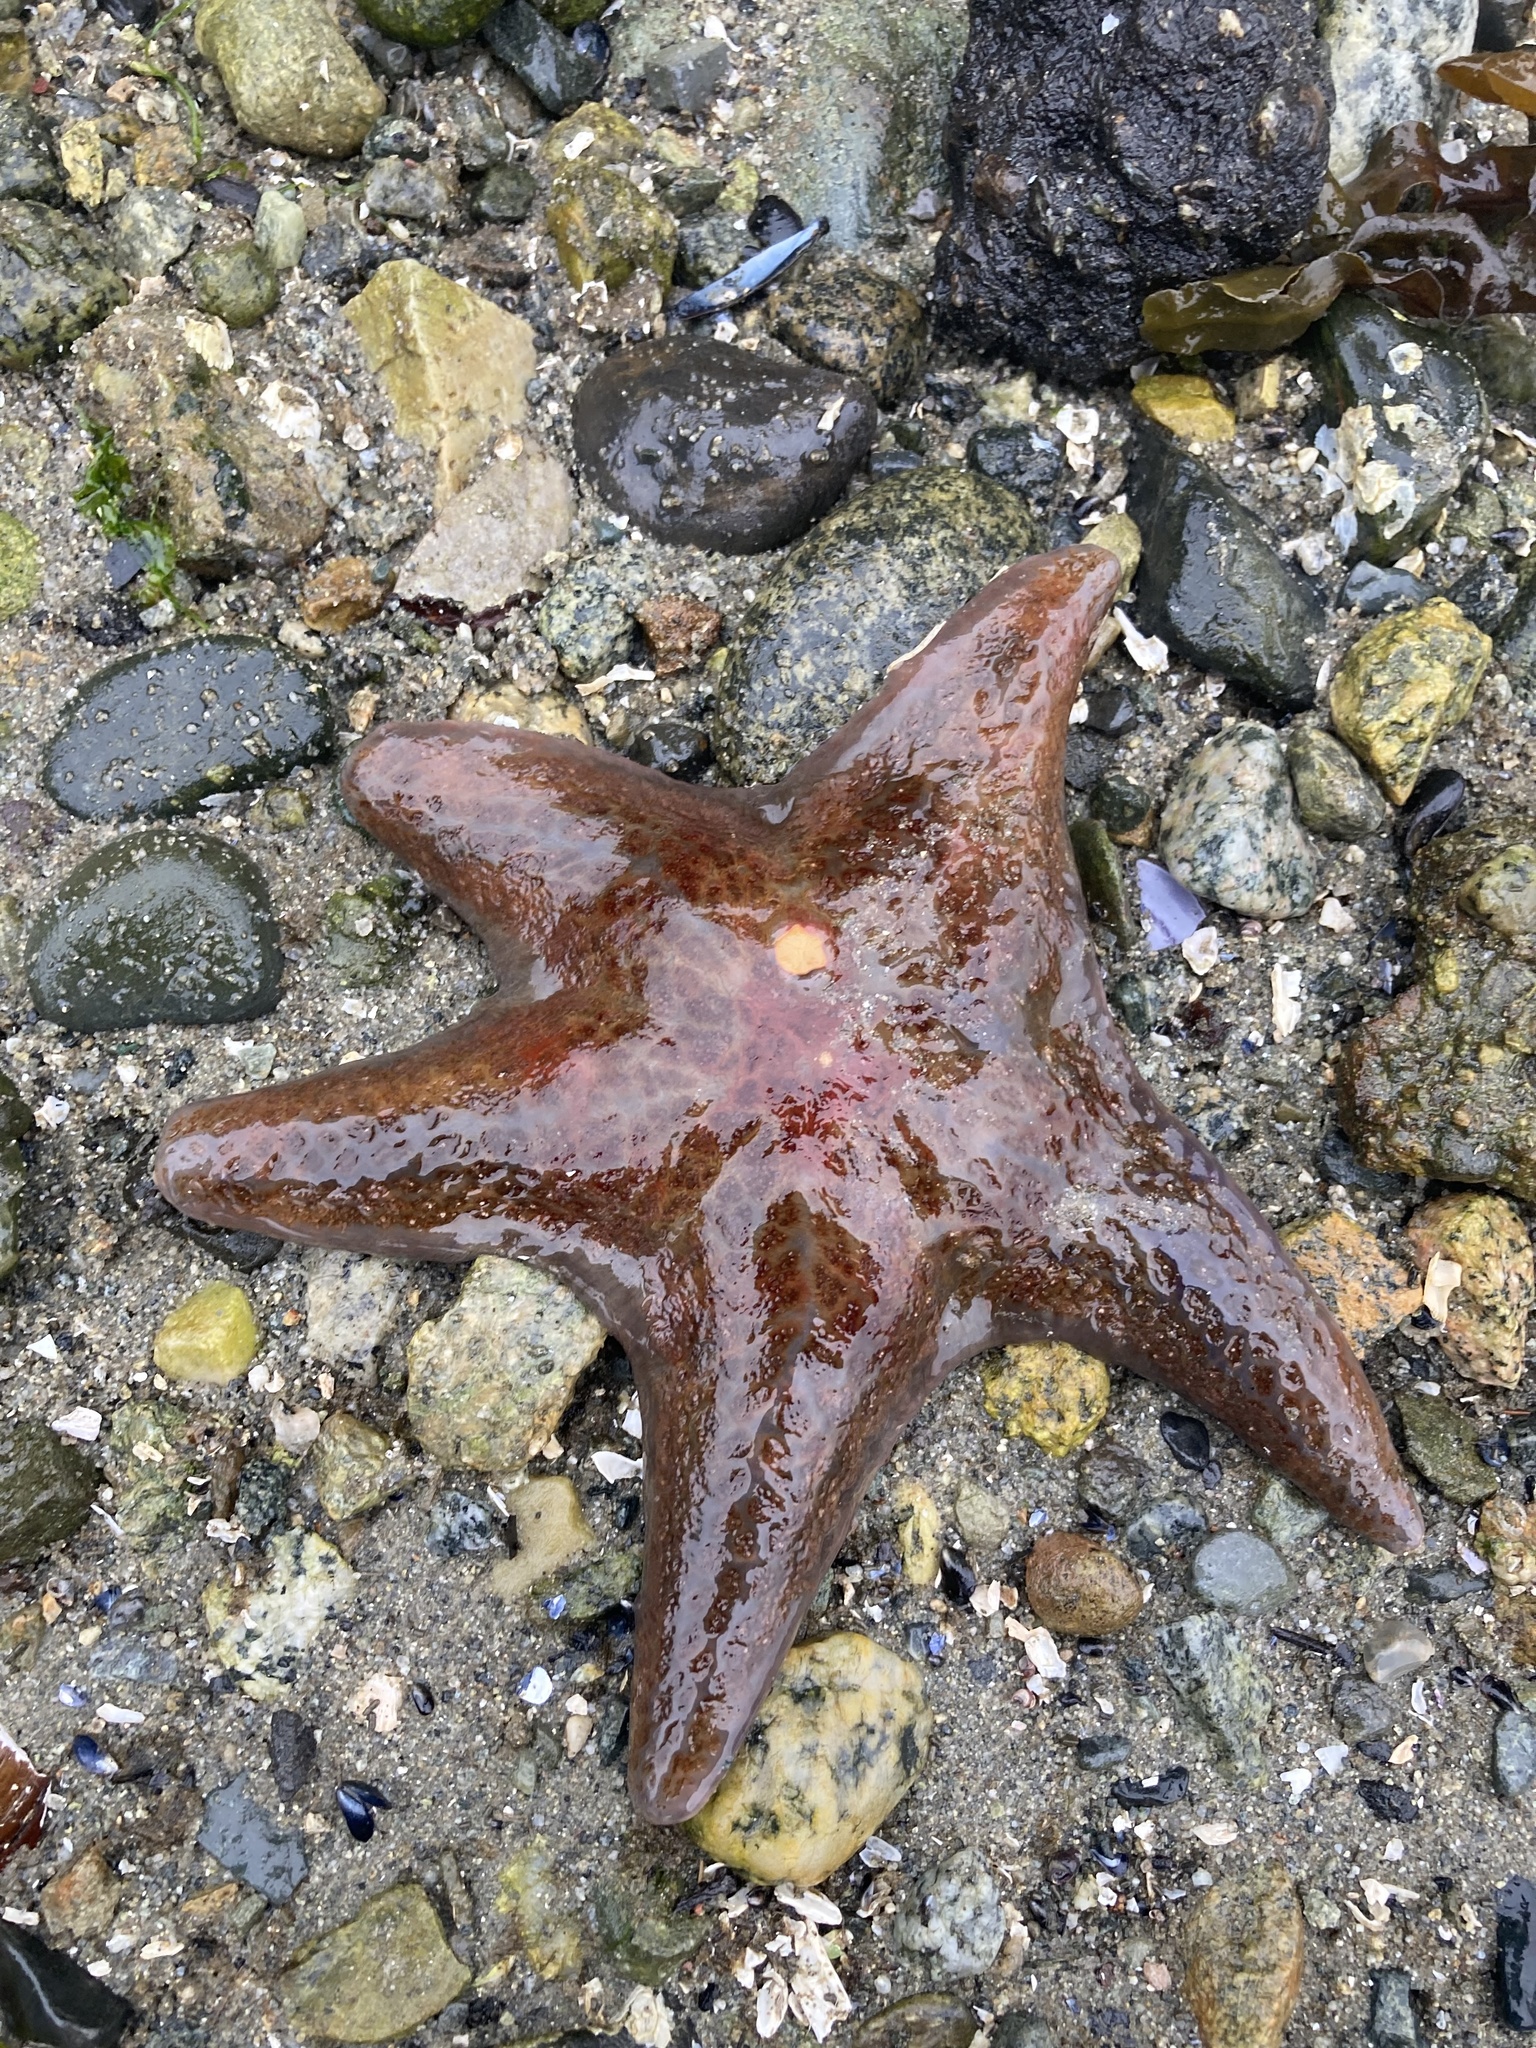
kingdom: Animalia
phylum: Echinodermata
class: Asteroidea
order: Valvatida
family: Asteropseidae
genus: Dermasterias
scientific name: Dermasterias imbricata
